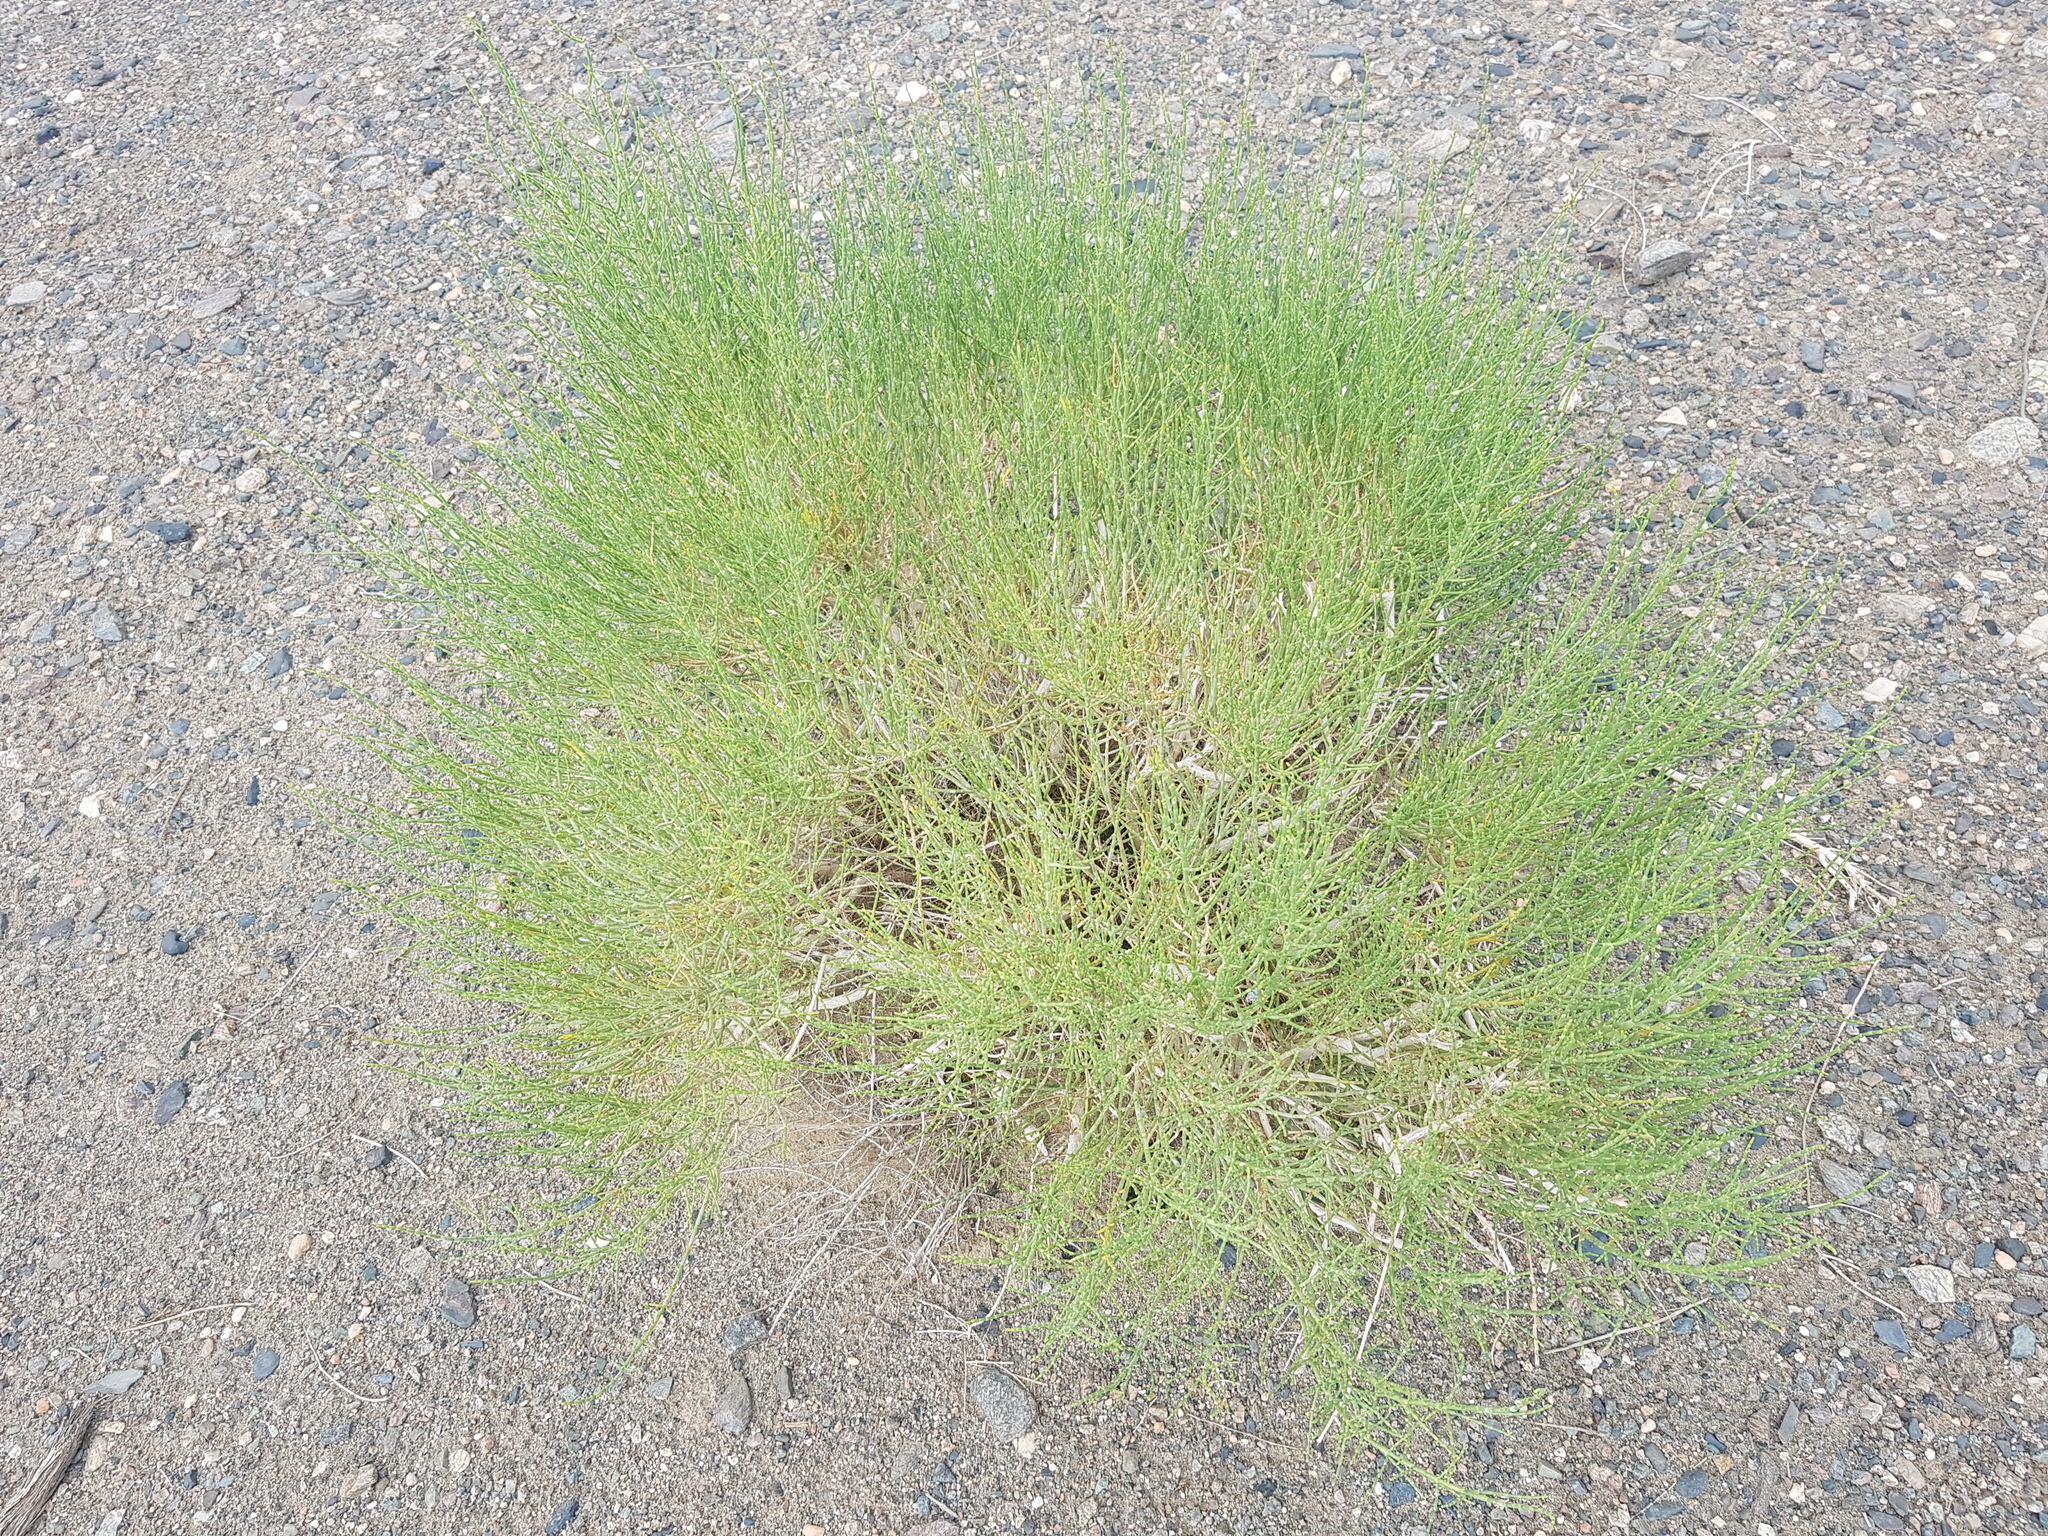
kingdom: Plantae
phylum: Tracheophyta
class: Magnoliopsida
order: Asterales
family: Asteraceae
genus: Artemisia
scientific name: Artemisia xanthochloa
